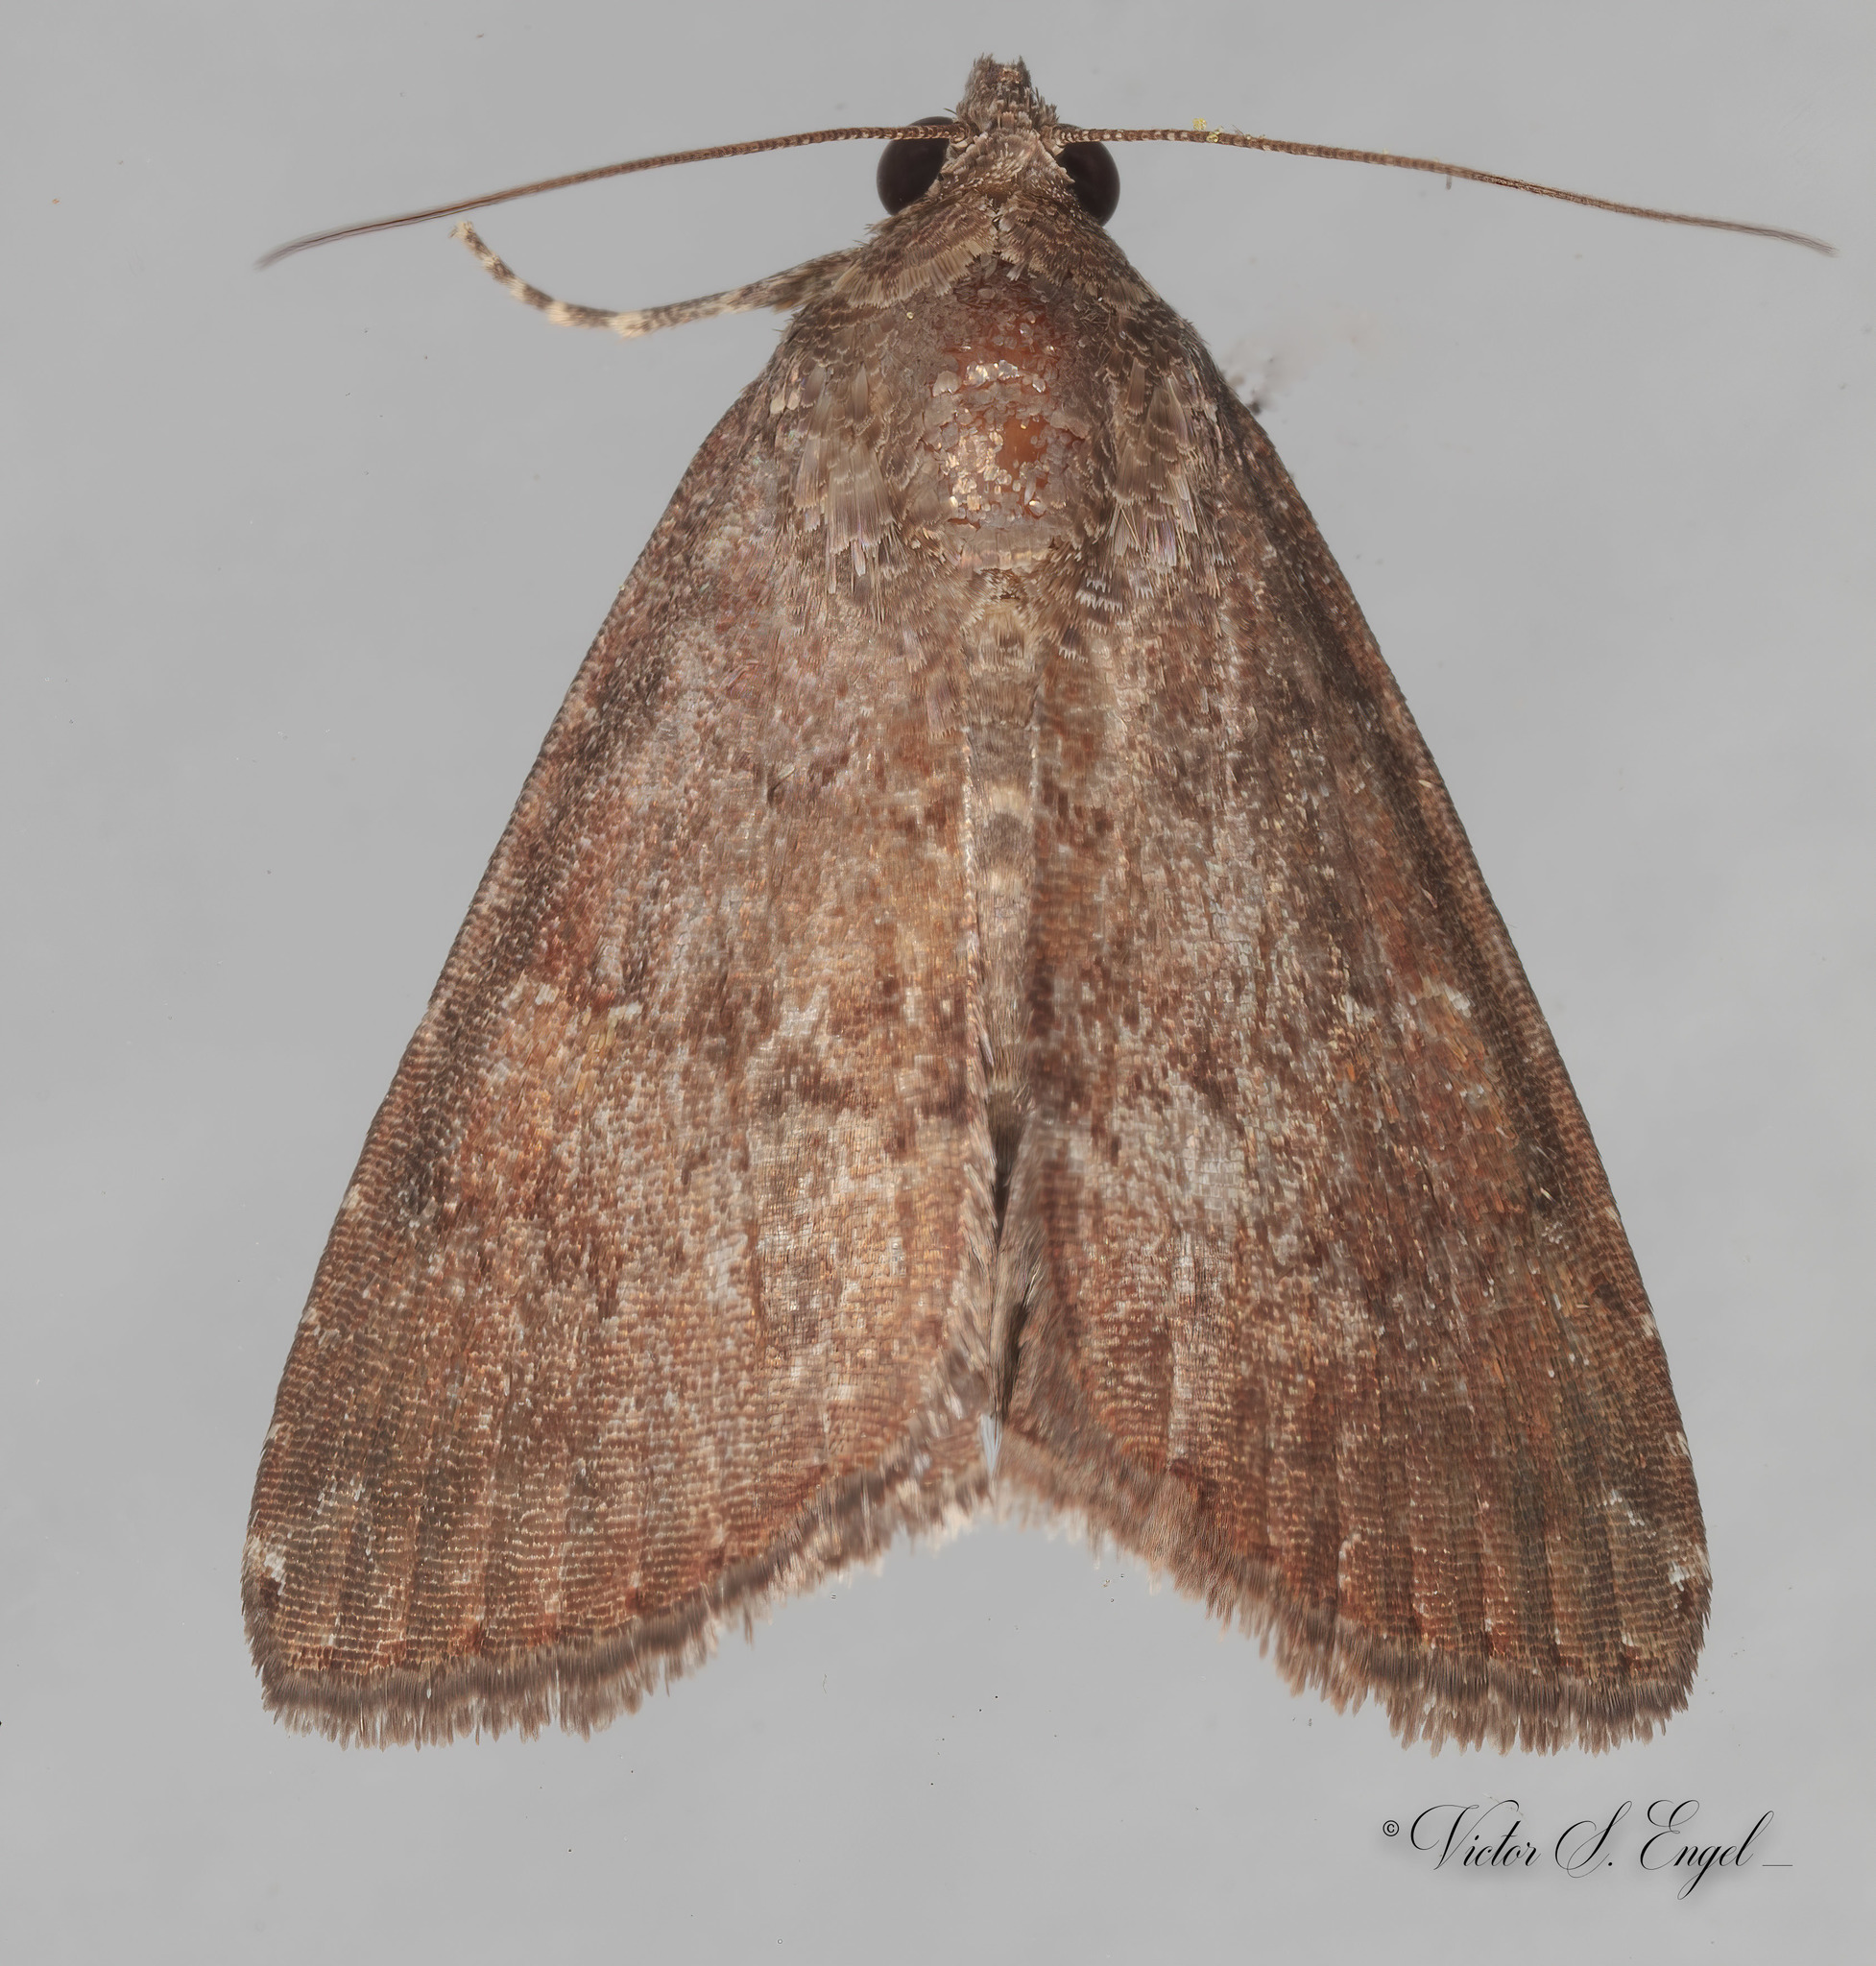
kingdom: Animalia
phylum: Arthropoda
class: Insecta
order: Lepidoptera
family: Noctuidae
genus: Amyna
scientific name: Amyna stricta
